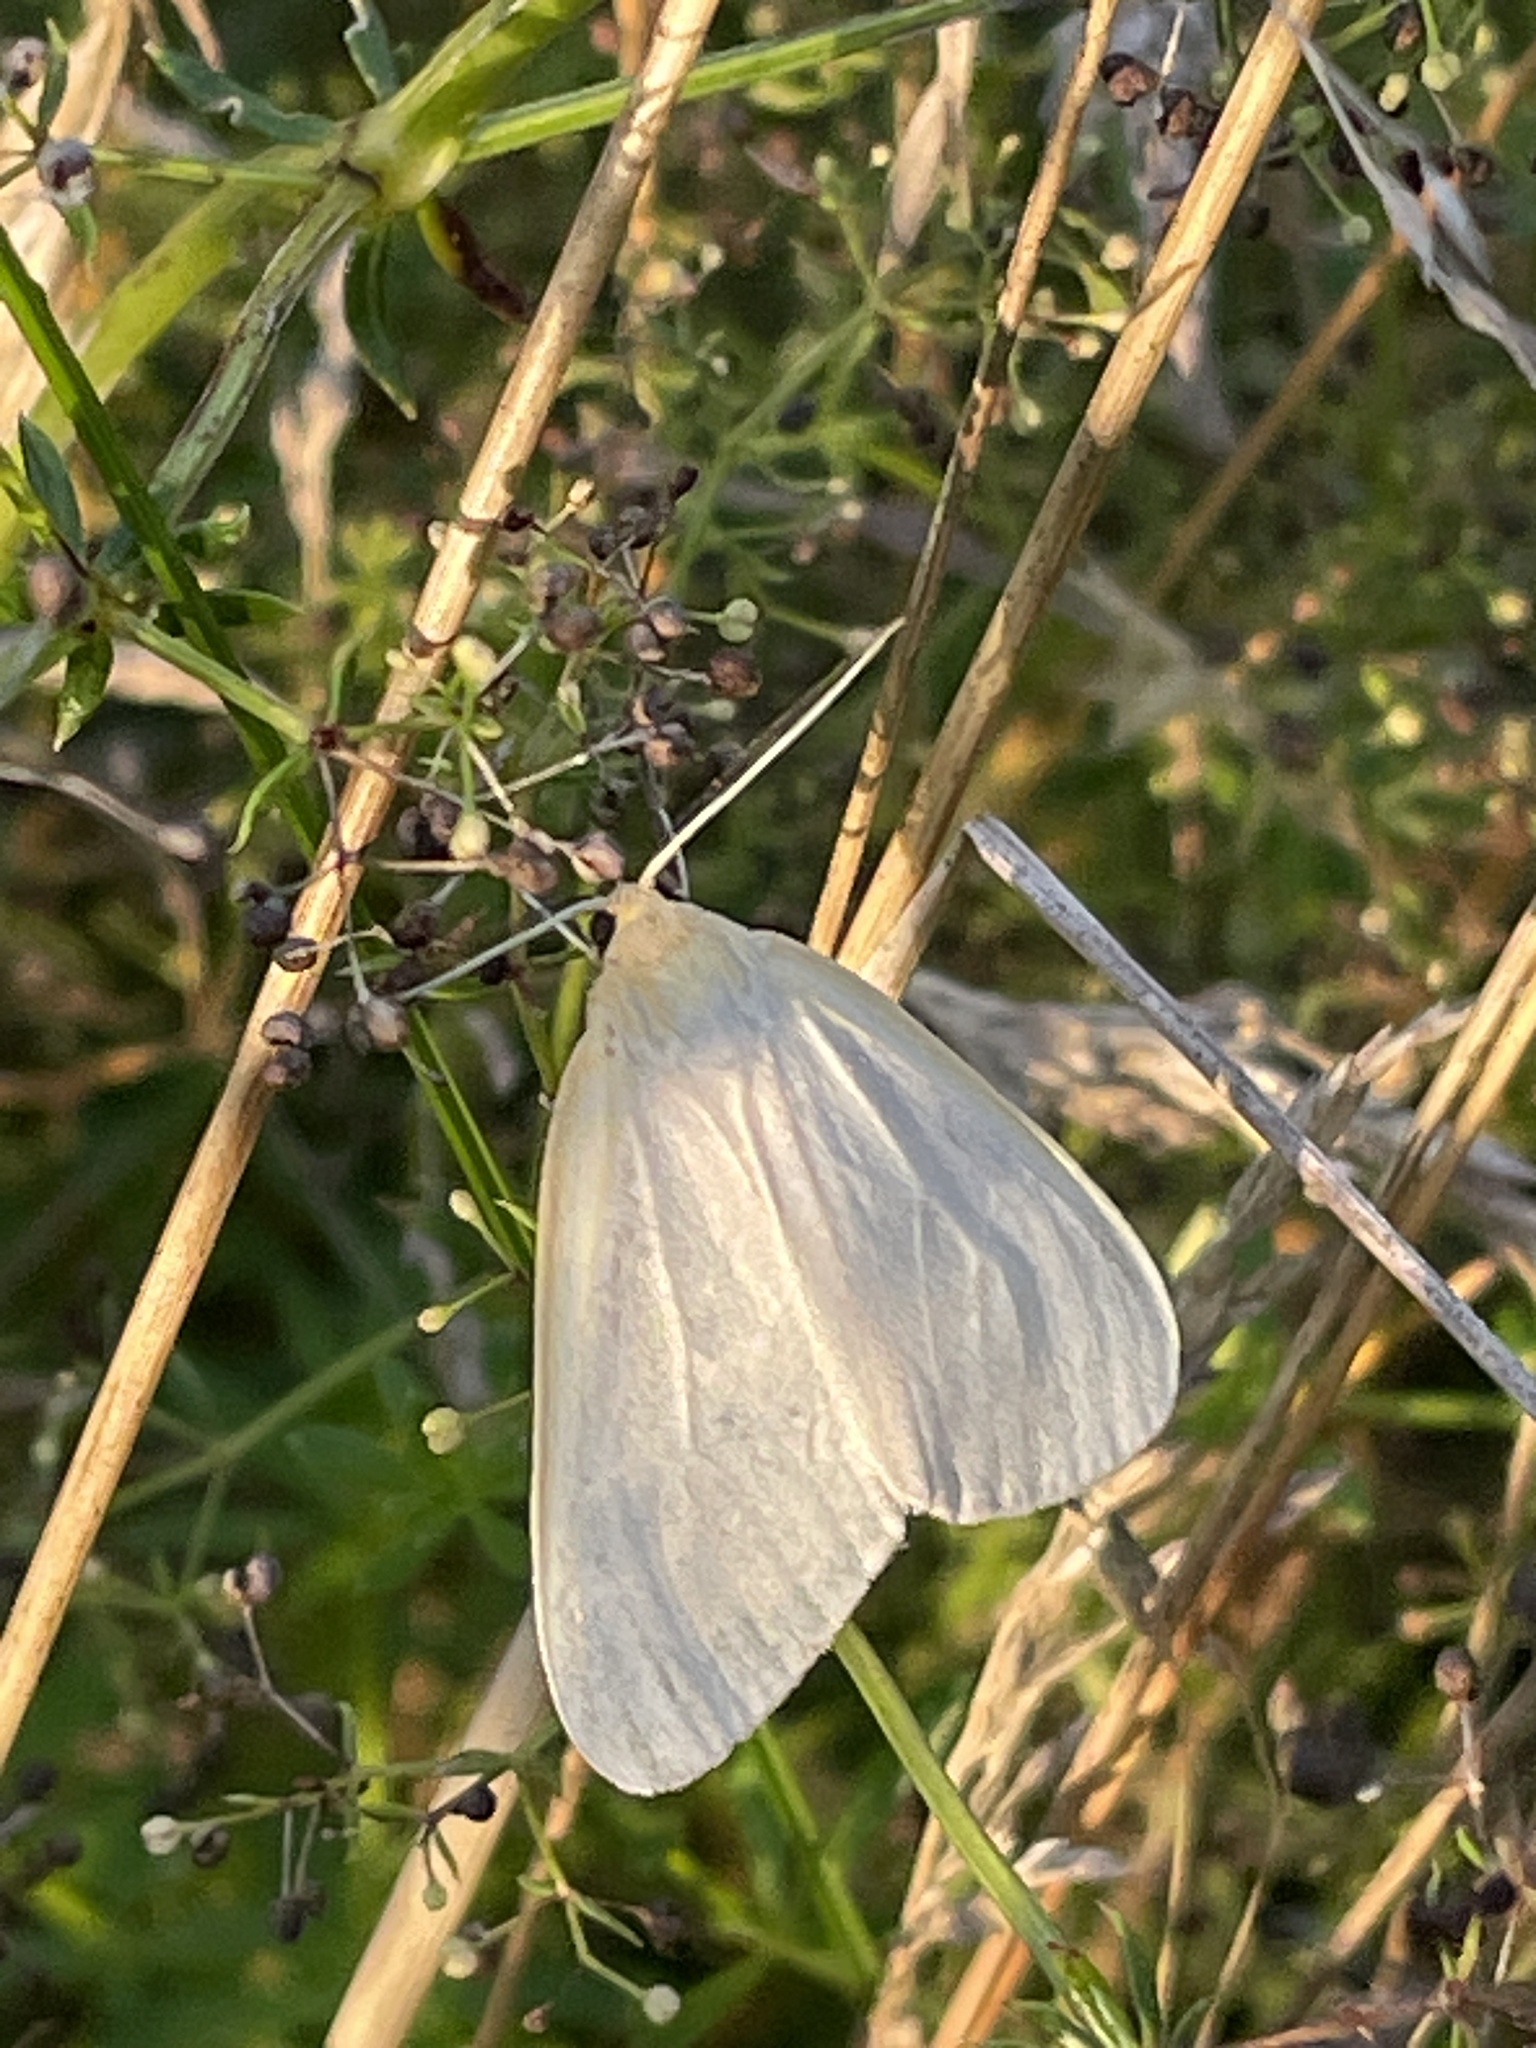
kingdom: Animalia
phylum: Arthropoda
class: Insecta
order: Lepidoptera
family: Erebidae
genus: Cycnia
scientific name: Cycnia tenera
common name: Delicate cycnia moth
